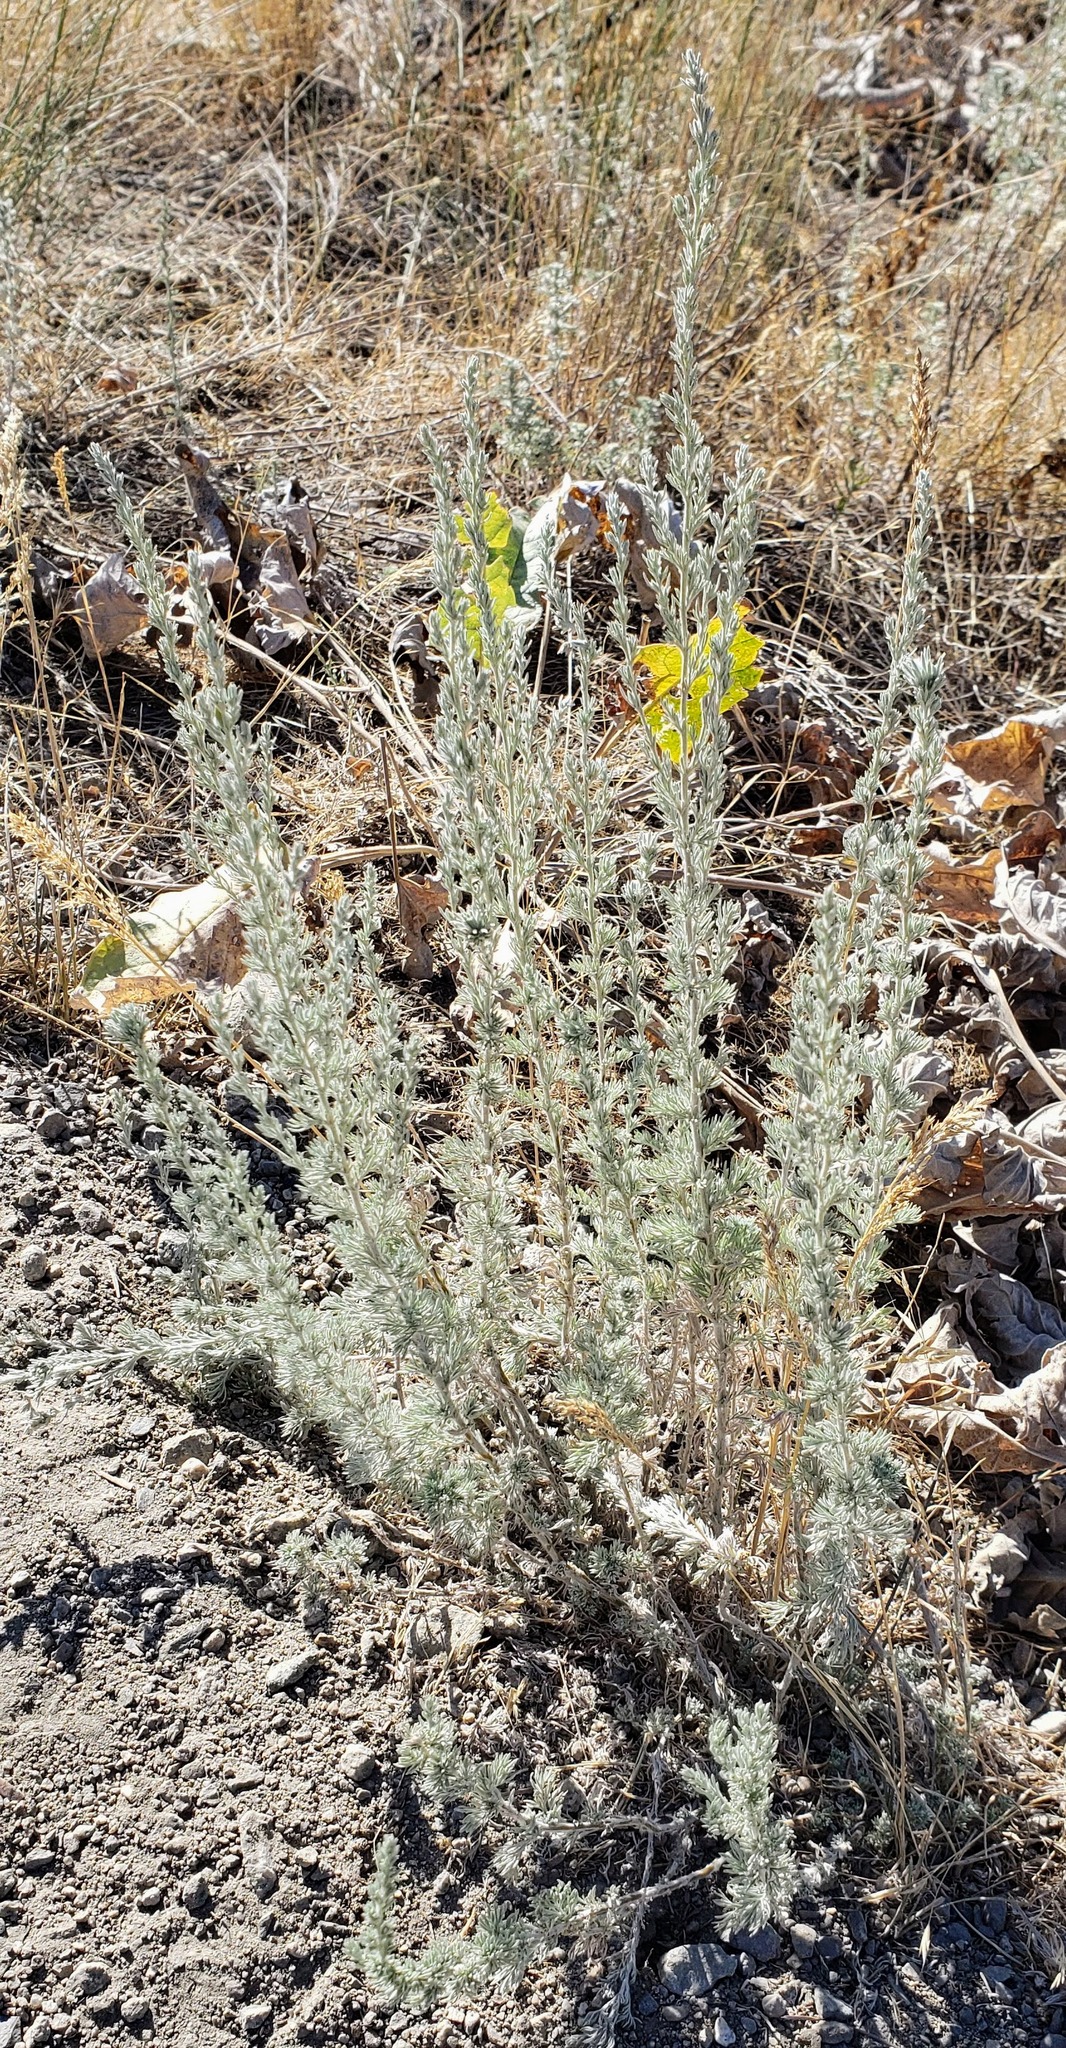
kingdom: Plantae
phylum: Tracheophyta
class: Magnoliopsida
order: Asterales
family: Asteraceae
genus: Artemisia
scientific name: Artemisia frigida
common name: Prairie sagewort
